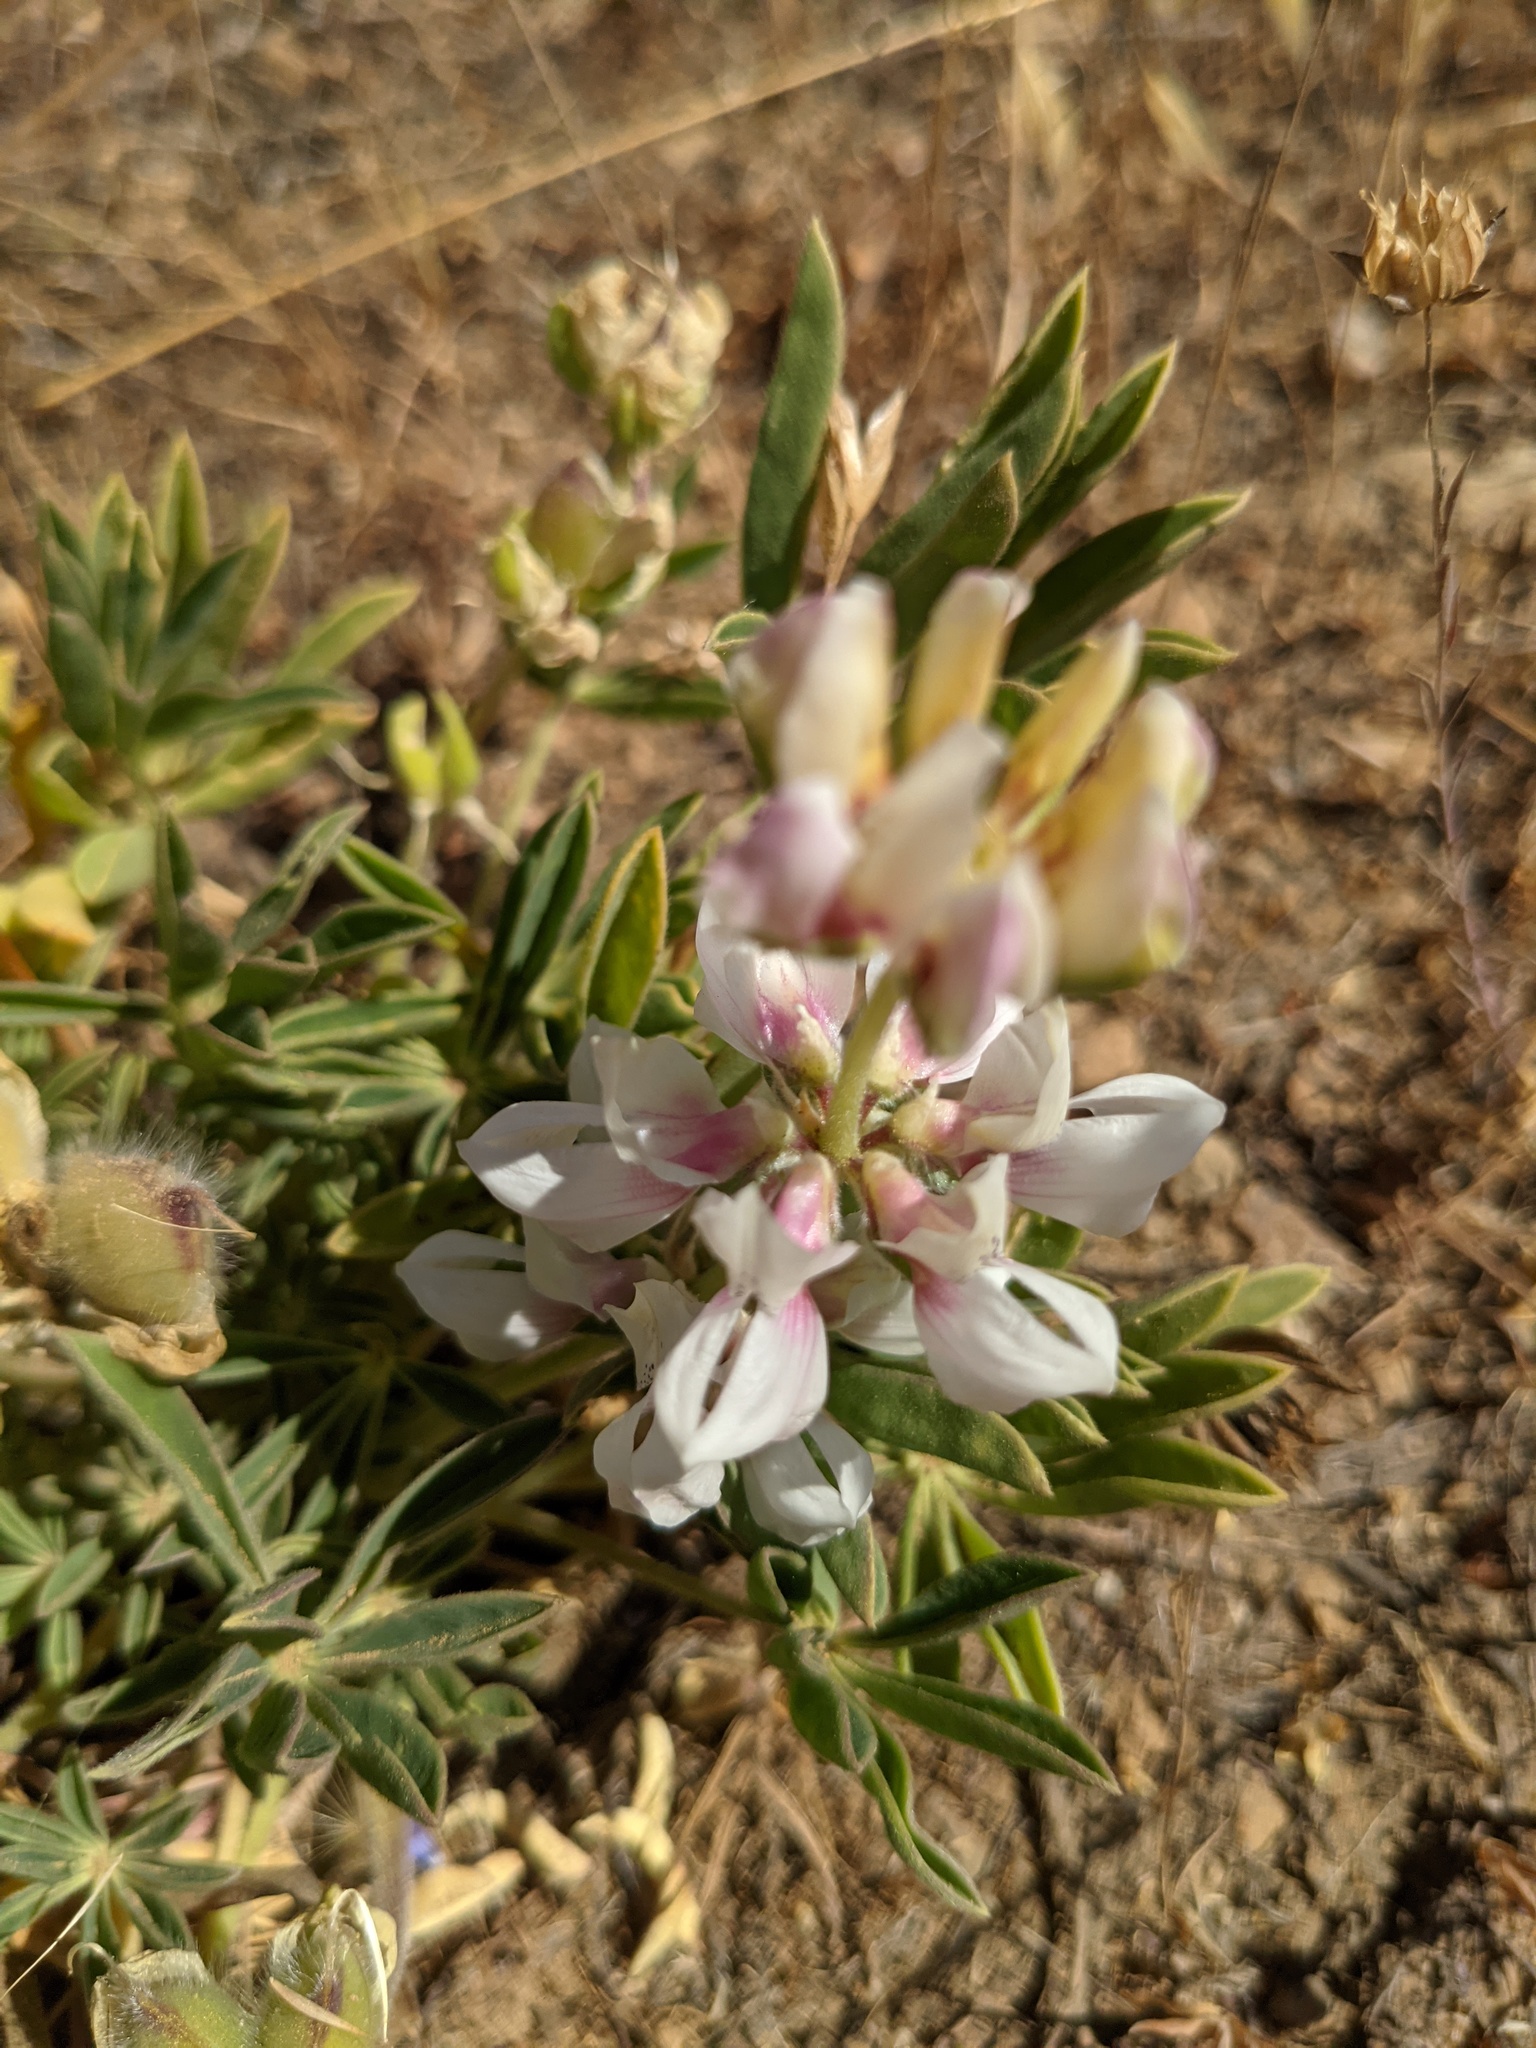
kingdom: Plantae
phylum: Tracheophyta
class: Magnoliopsida
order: Fabales
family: Fabaceae
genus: Lupinus
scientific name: Lupinus microcarpus
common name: Chick lupine
